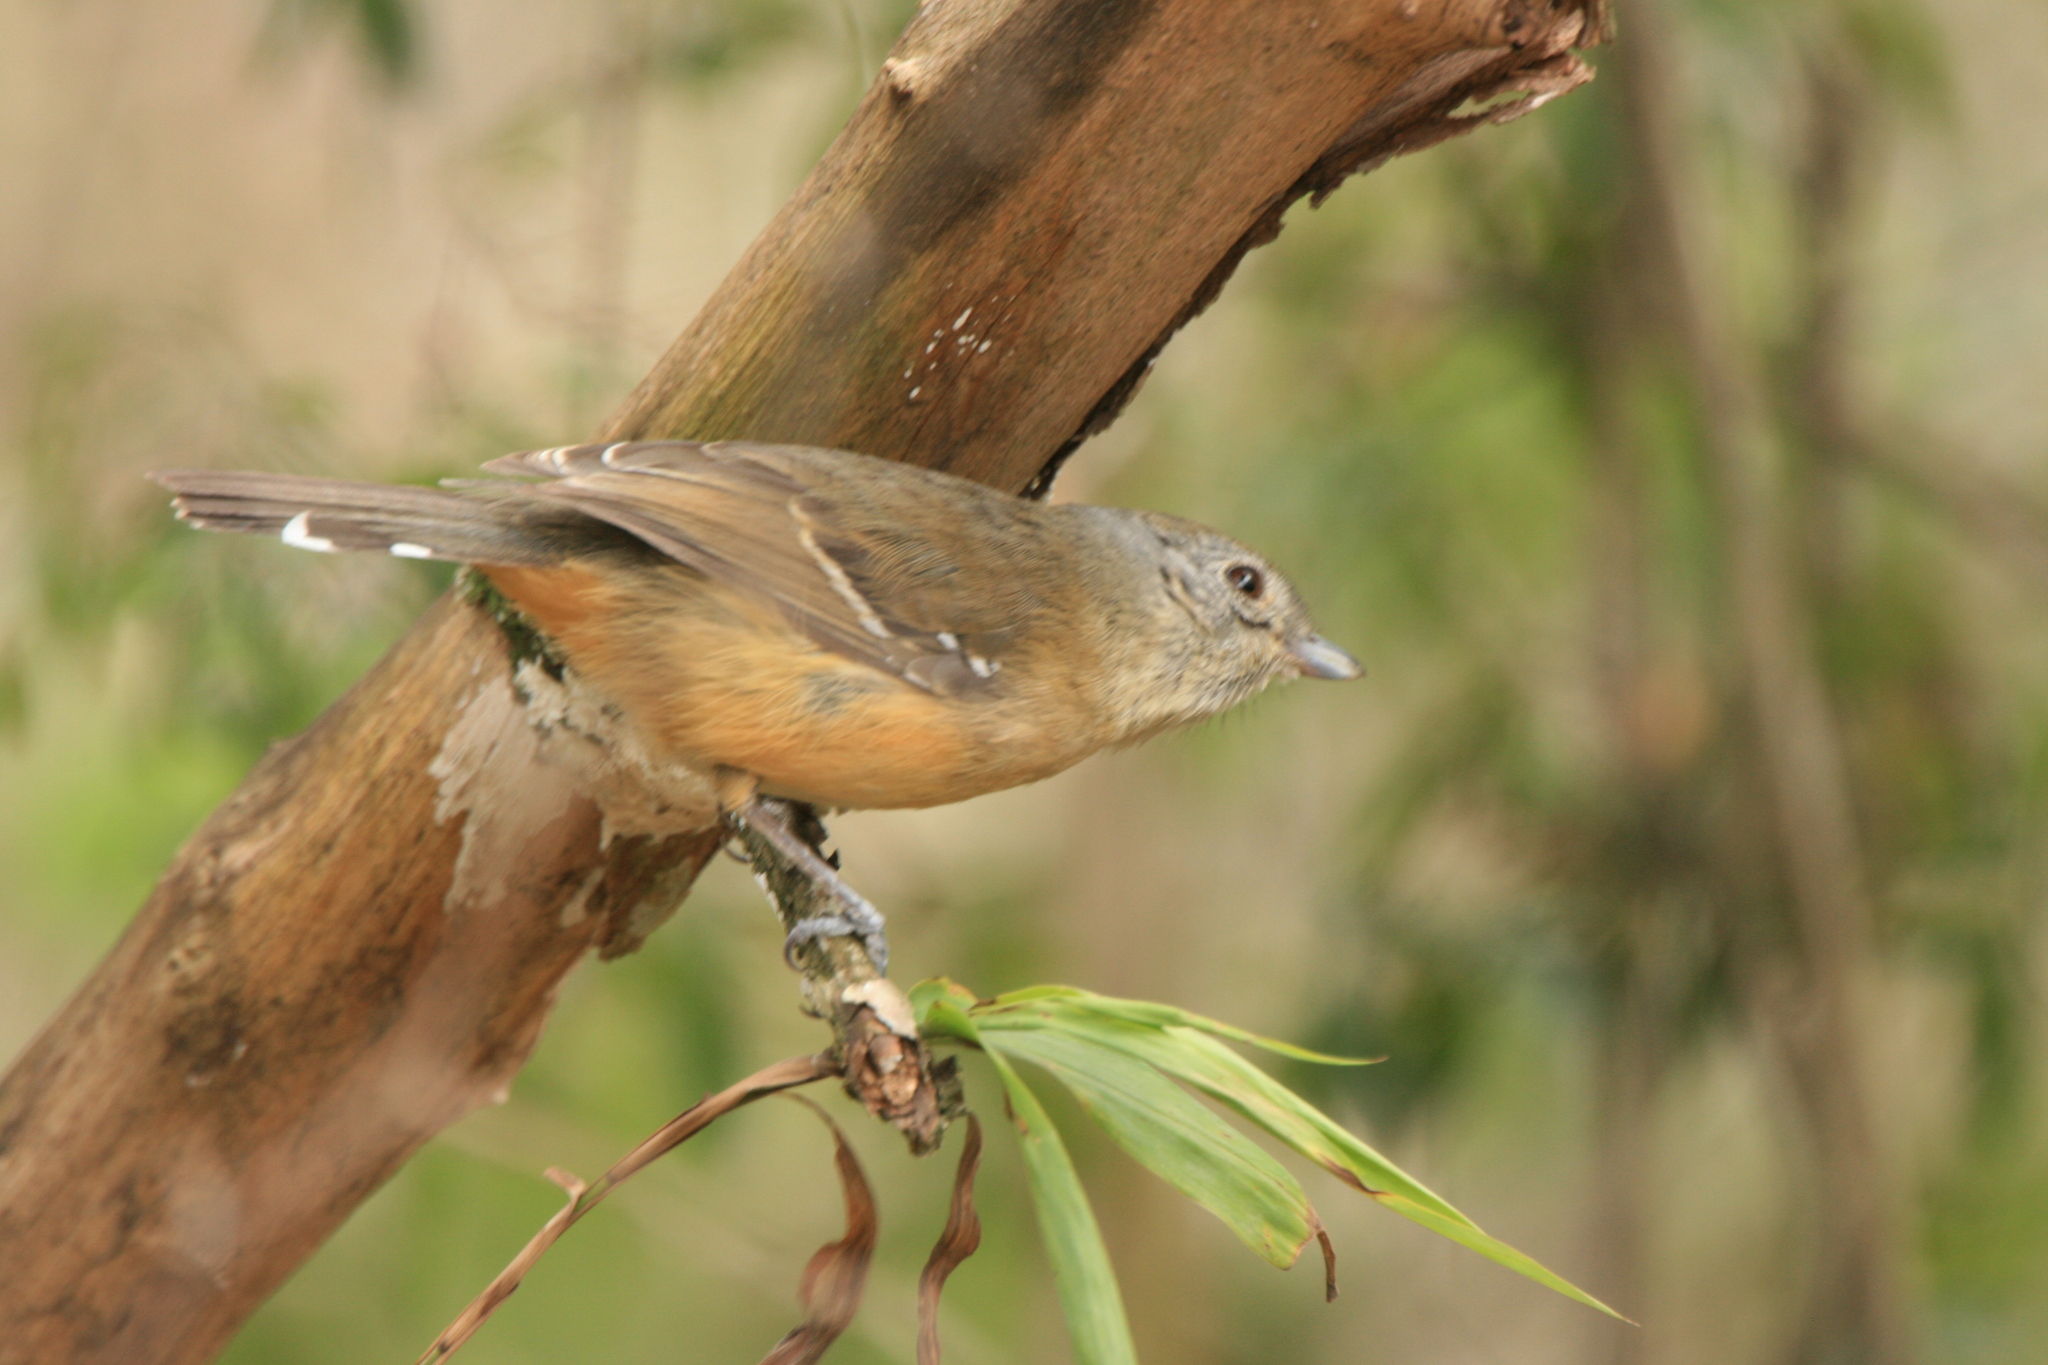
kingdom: Animalia
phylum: Chordata
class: Aves
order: Passeriformes
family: Thamnophilidae
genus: Thamnophilus
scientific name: Thamnophilus caerulescens
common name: Variable antshrike
